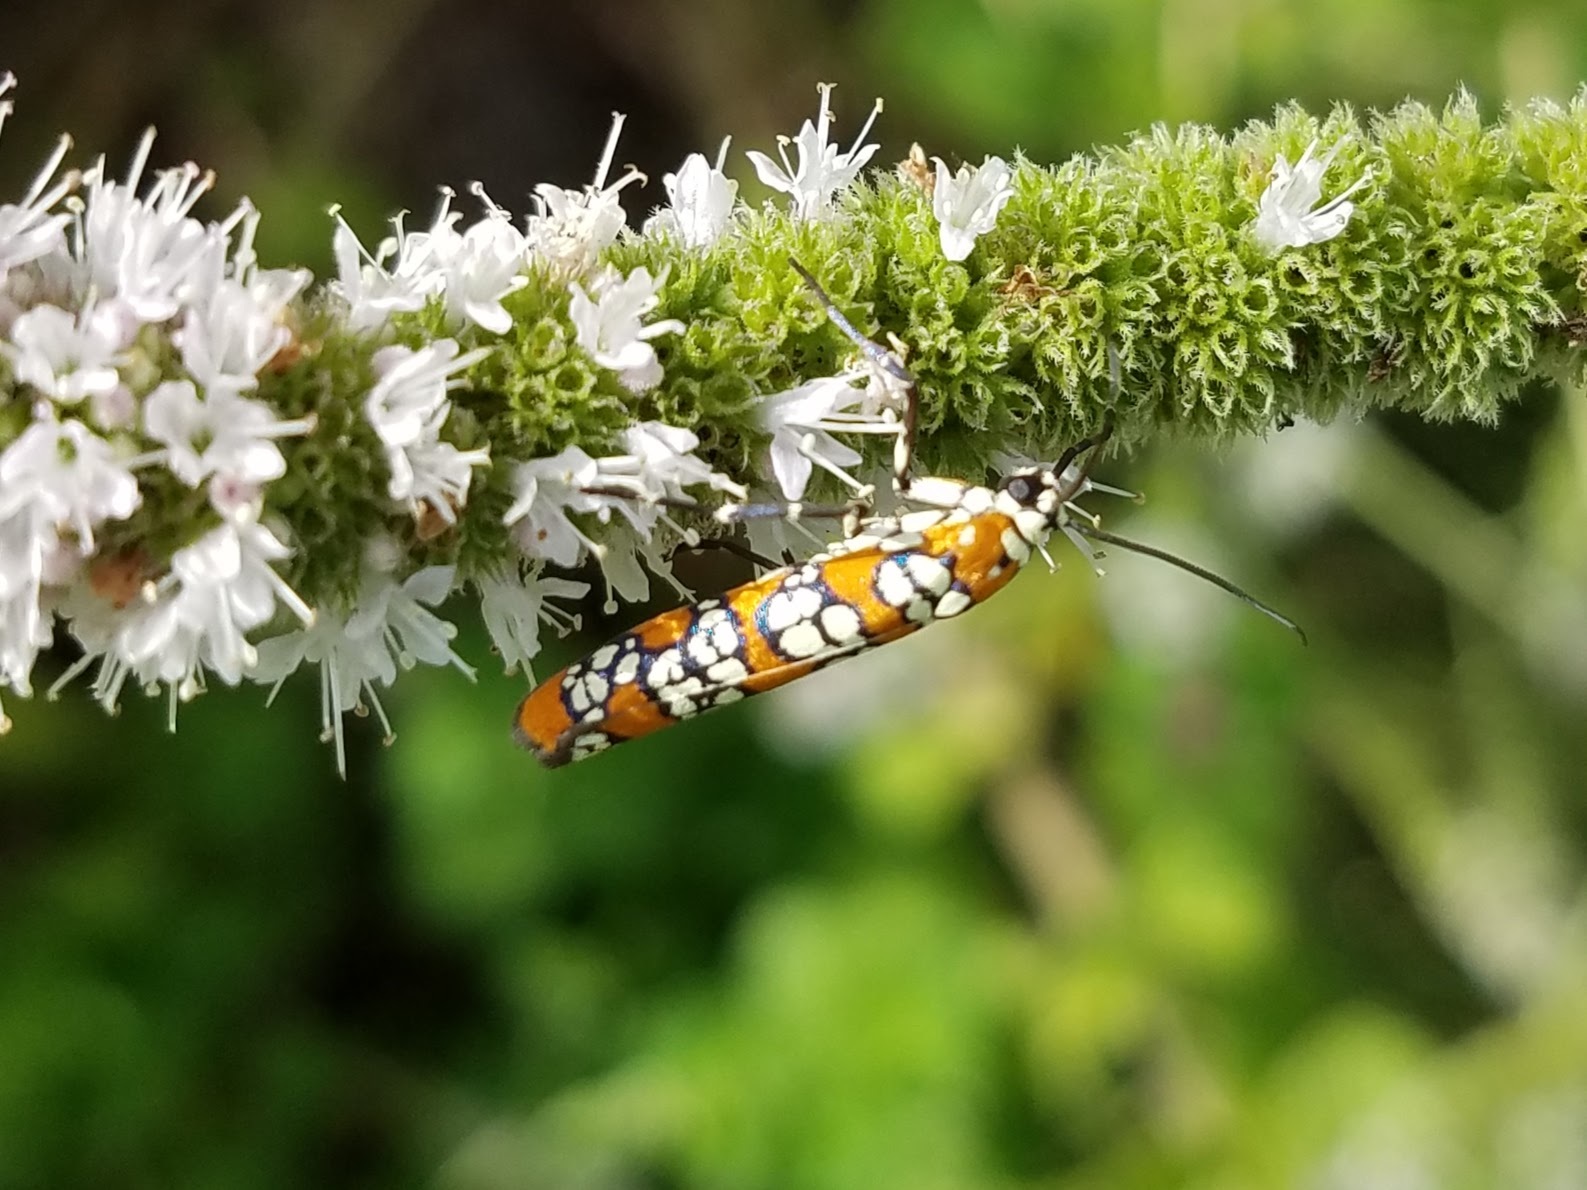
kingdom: Animalia
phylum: Arthropoda
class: Insecta
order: Lepidoptera
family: Attevidae
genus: Atteva
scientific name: Atteva punctella
